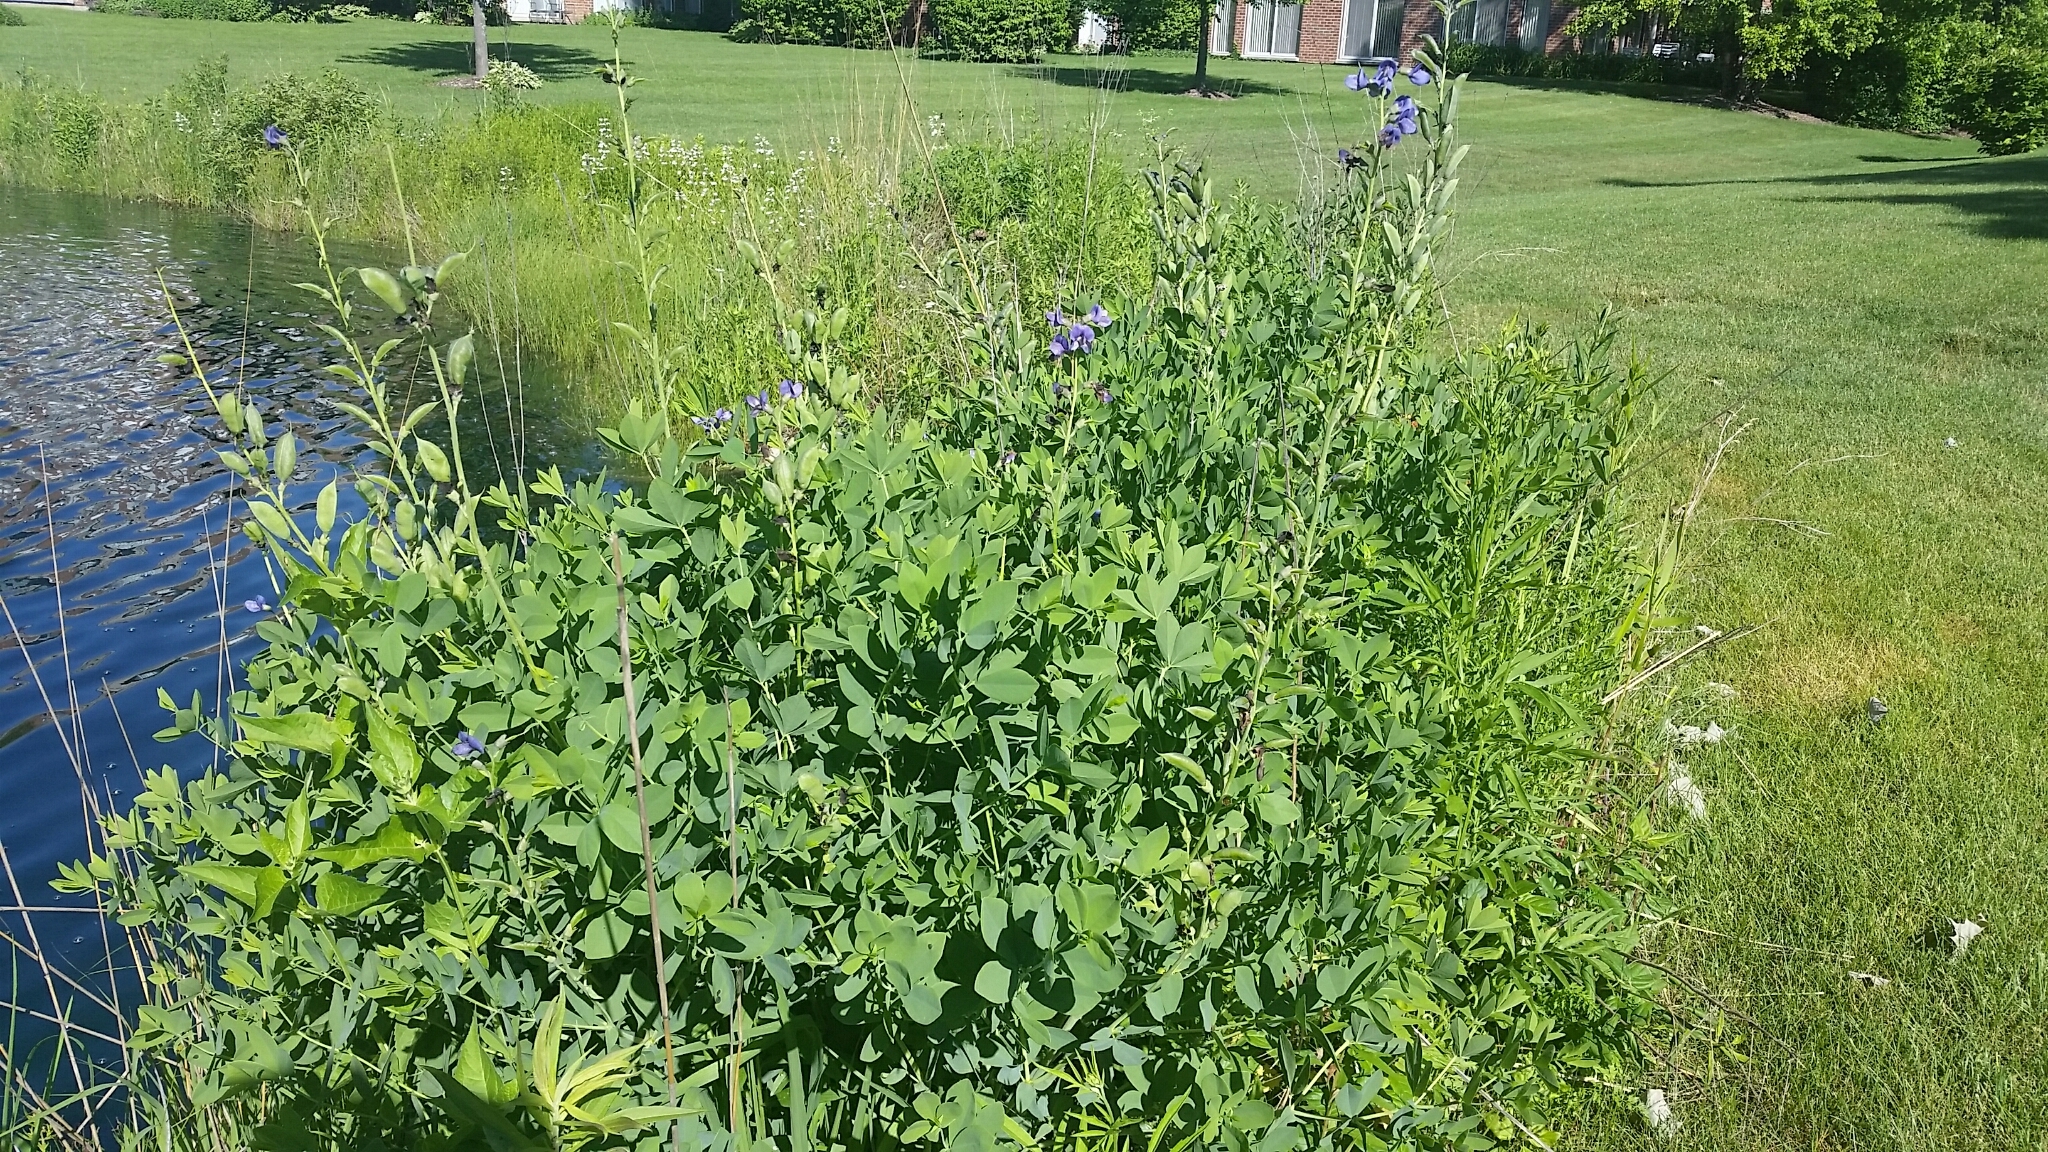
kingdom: Plantae
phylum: Tracheophyta
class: Magnoliopsida
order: Fabales
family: Fabaceae
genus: Baptisia
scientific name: Baptisia australis
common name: Blue false indigo
